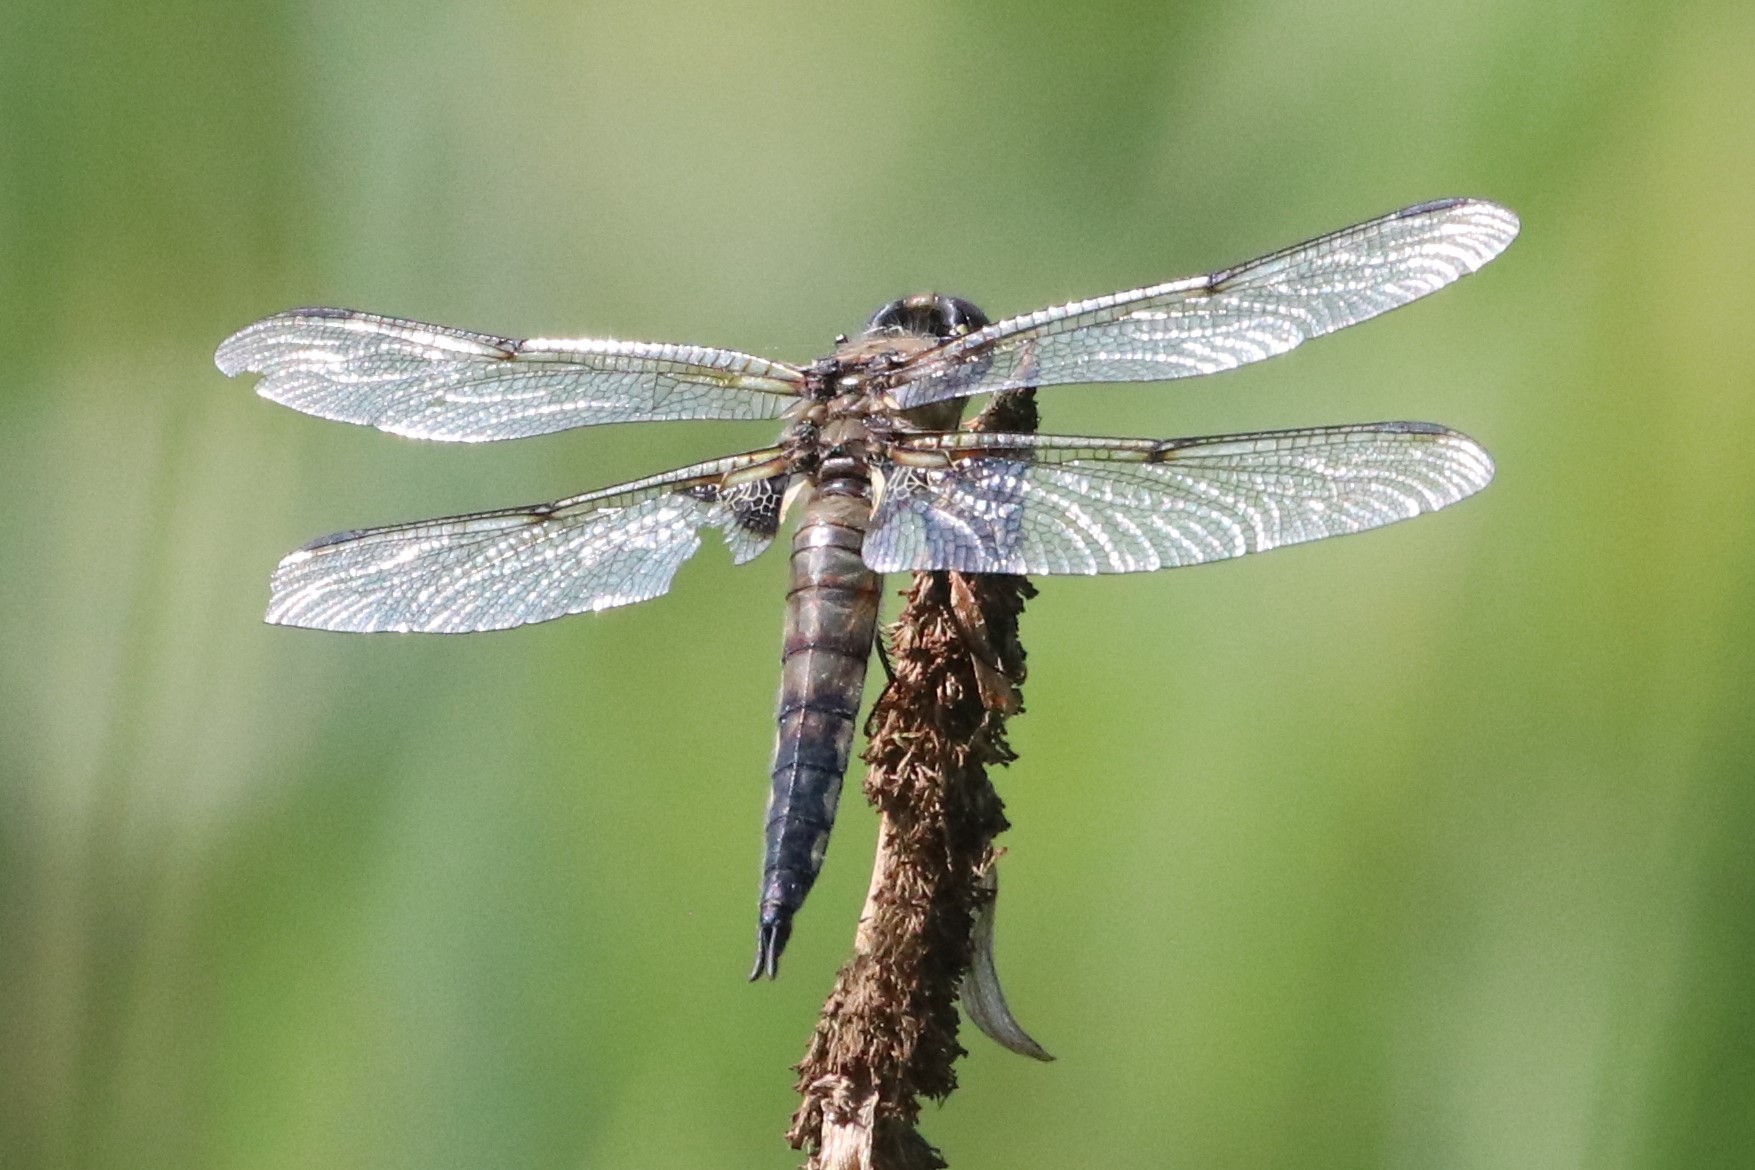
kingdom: Animalia
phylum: Arthropoda
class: Insecta
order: Odonata
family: Libellulidae
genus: Libellula
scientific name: Libellula quadrimaculata
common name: Four-spotted chaser
